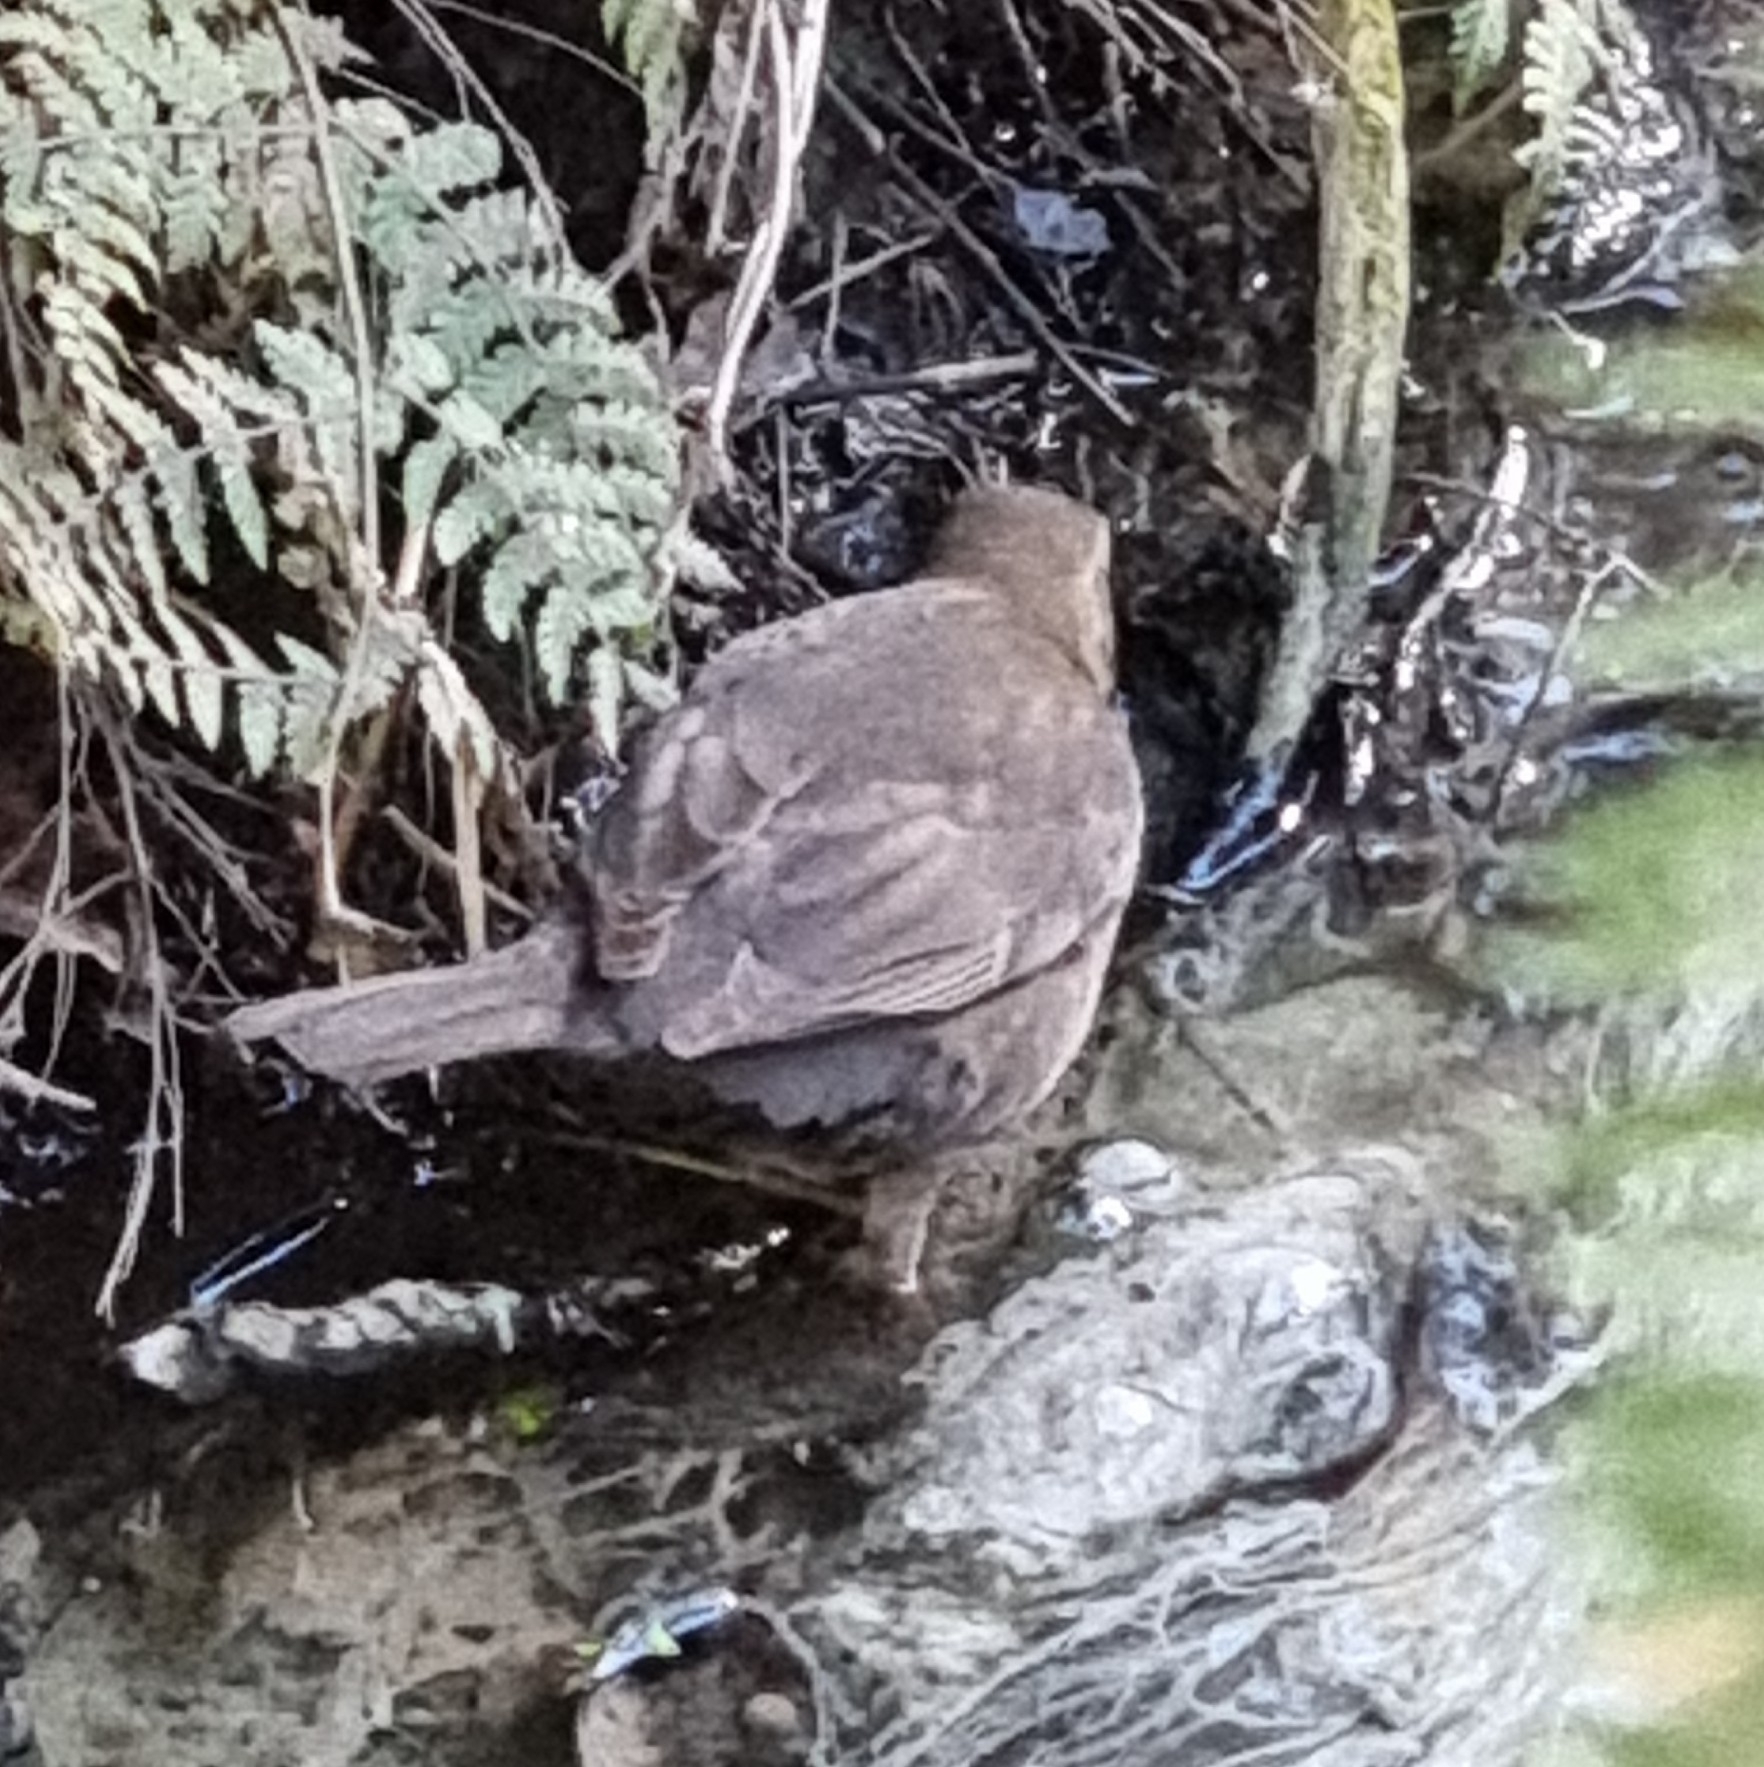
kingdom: Animalia
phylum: Chordata
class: Aves
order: Passeriformes
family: Turdidae
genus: Turdus
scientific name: Turdus merula
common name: Common blackbird
